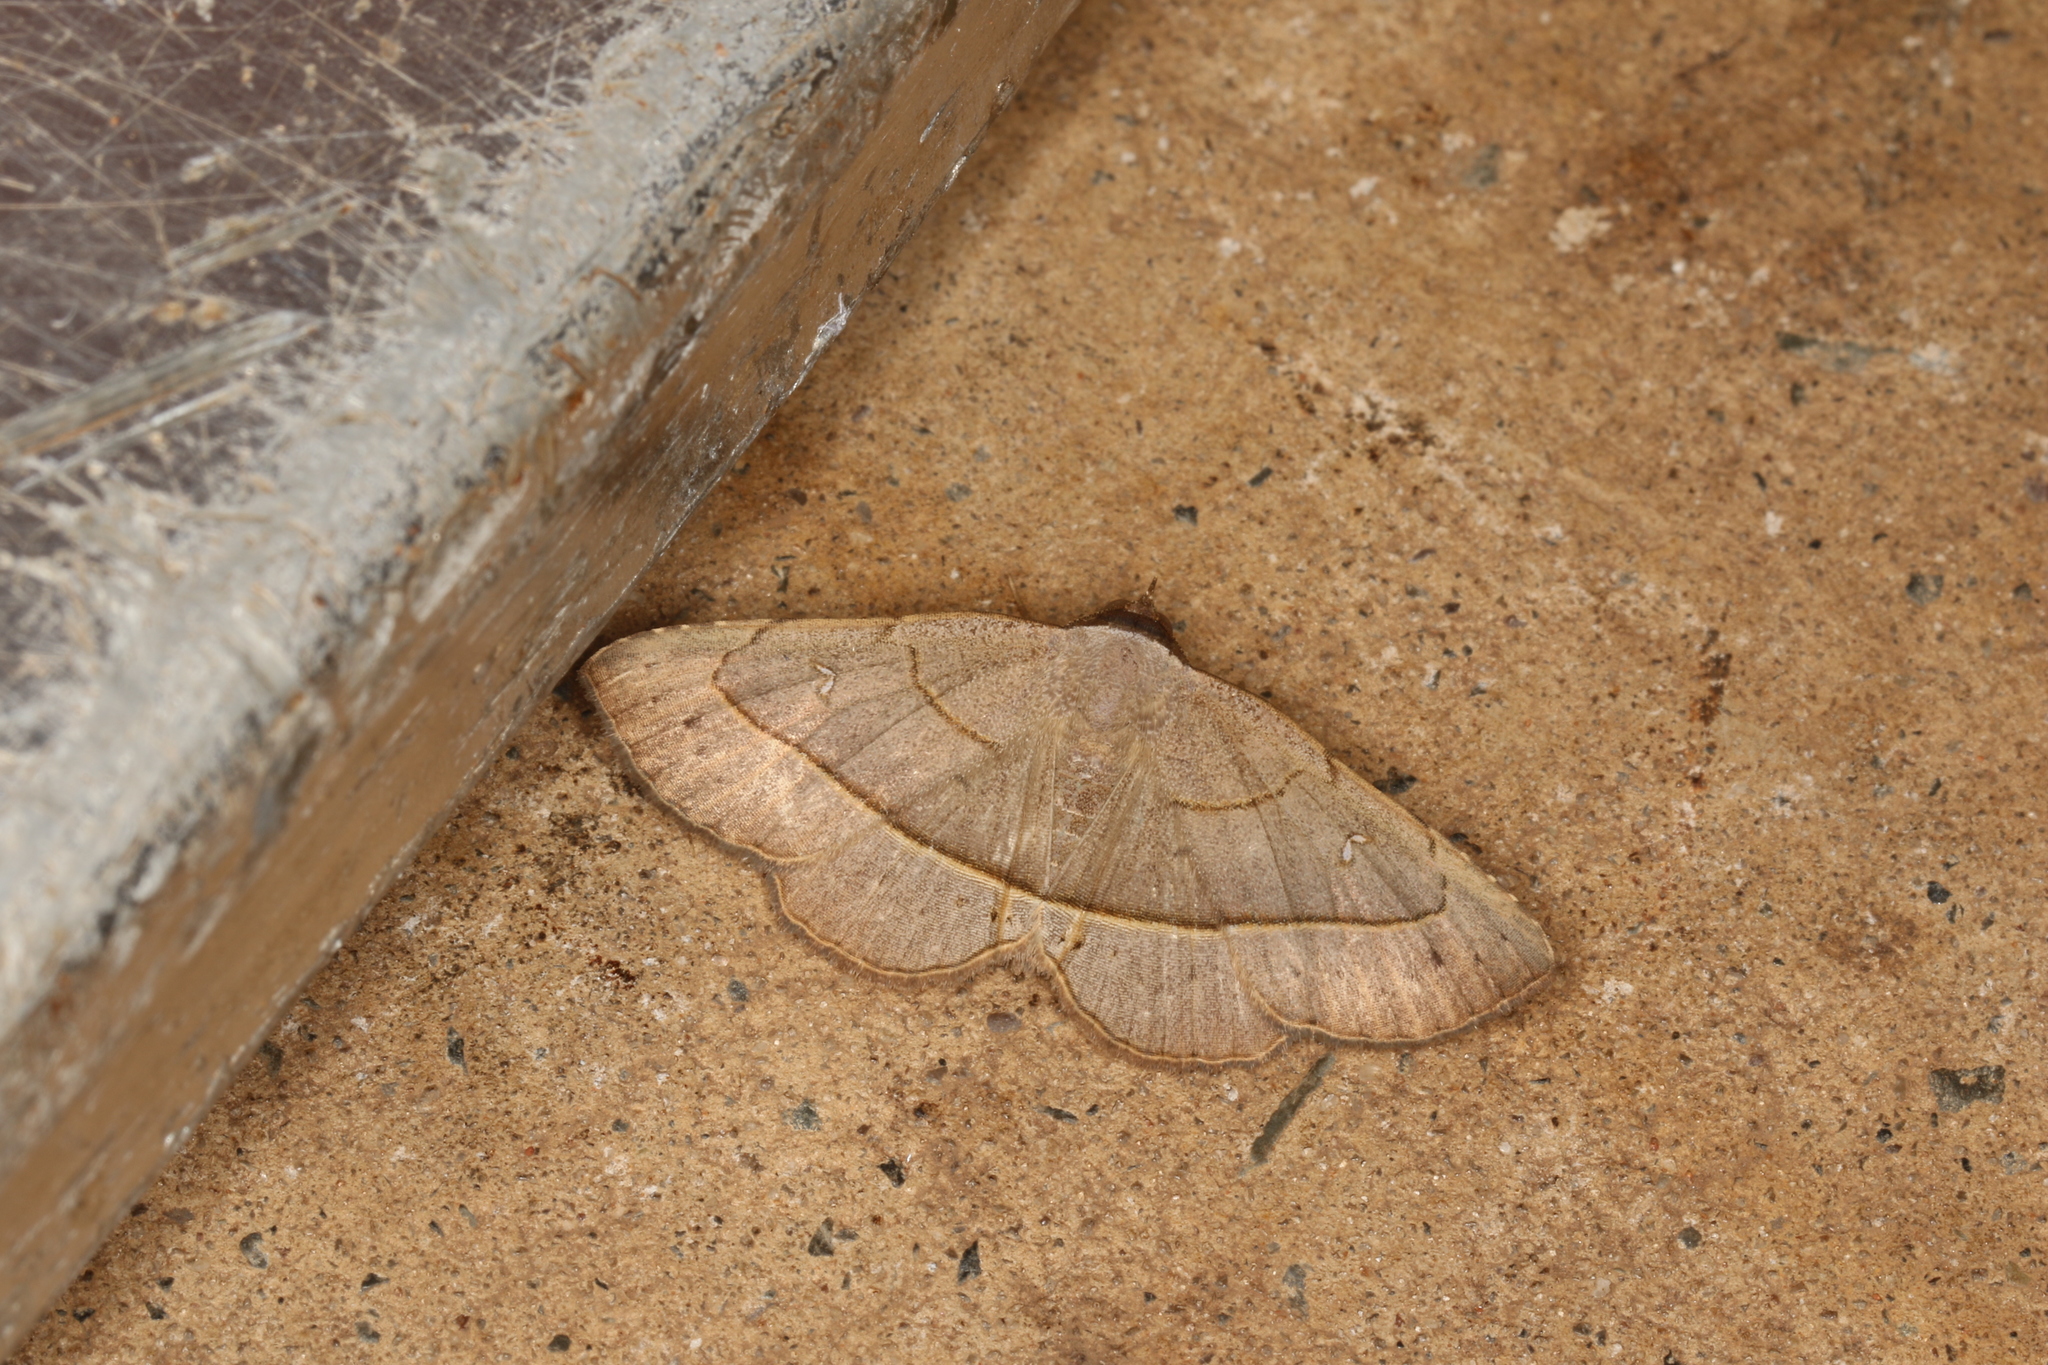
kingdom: Animalia
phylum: Arthropoda
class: Insecta
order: Lepidoptera
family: Erebidae
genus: Renodes
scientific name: Renodes curviluna
